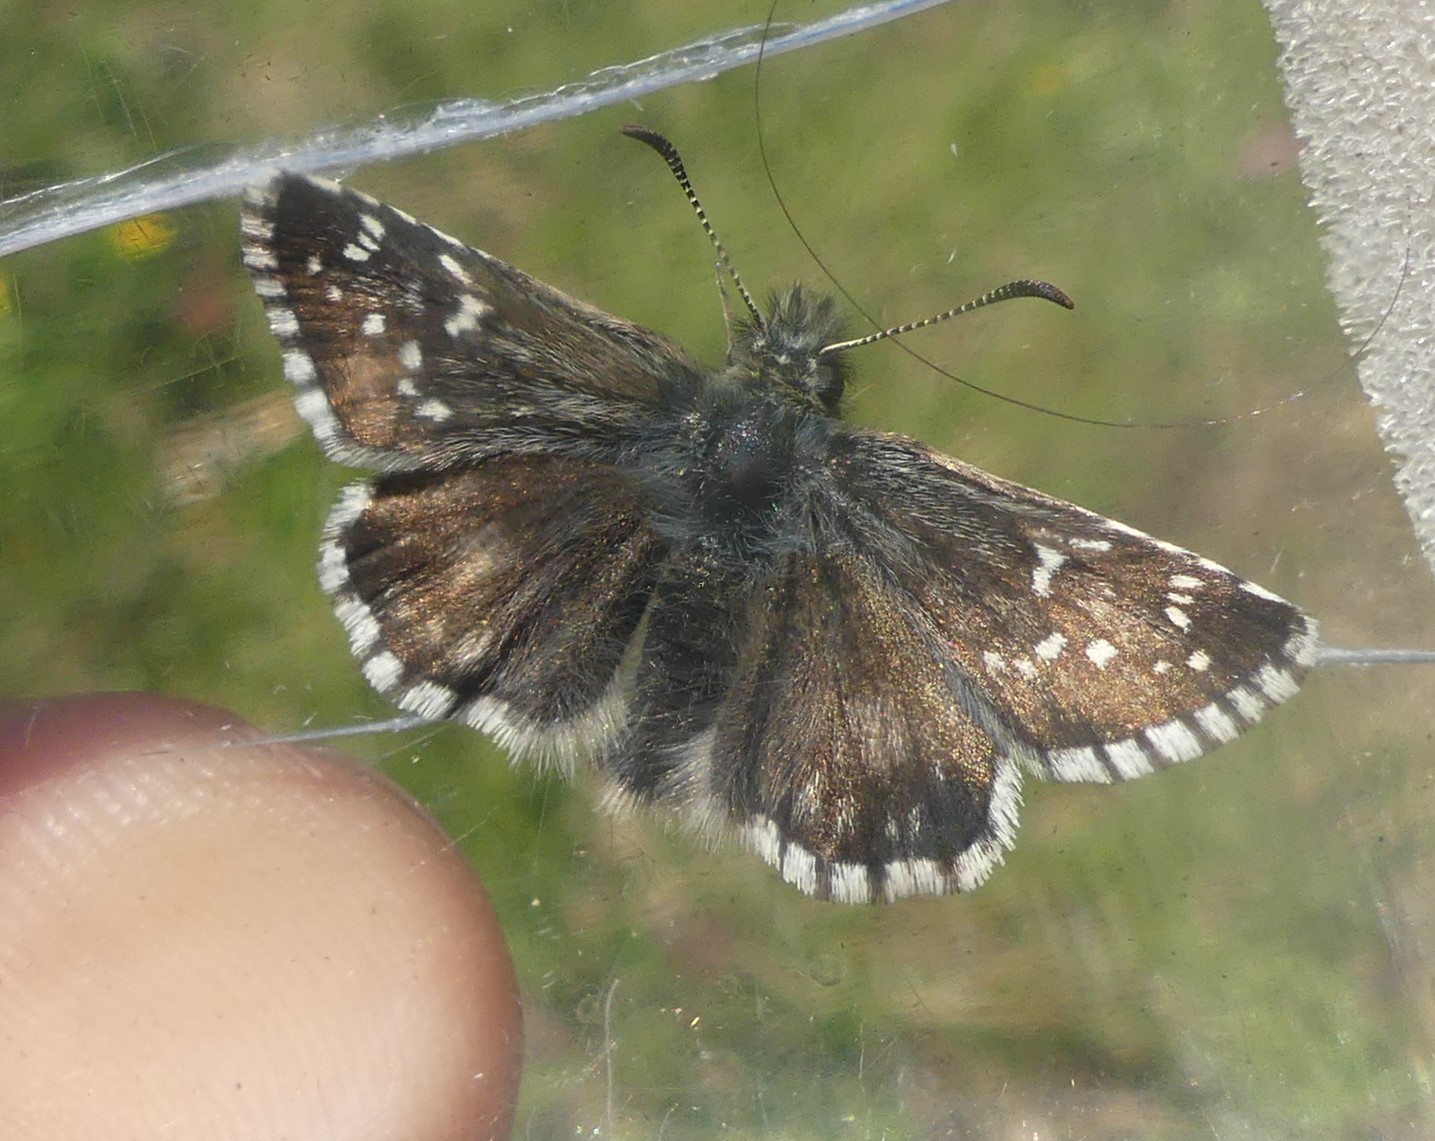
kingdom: Animalia
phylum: Arthropoda
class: Insecta
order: Lepidoptera
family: Hesperiidae
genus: Pyrgus
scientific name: Pyrgus serratulae
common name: Olive skipper
